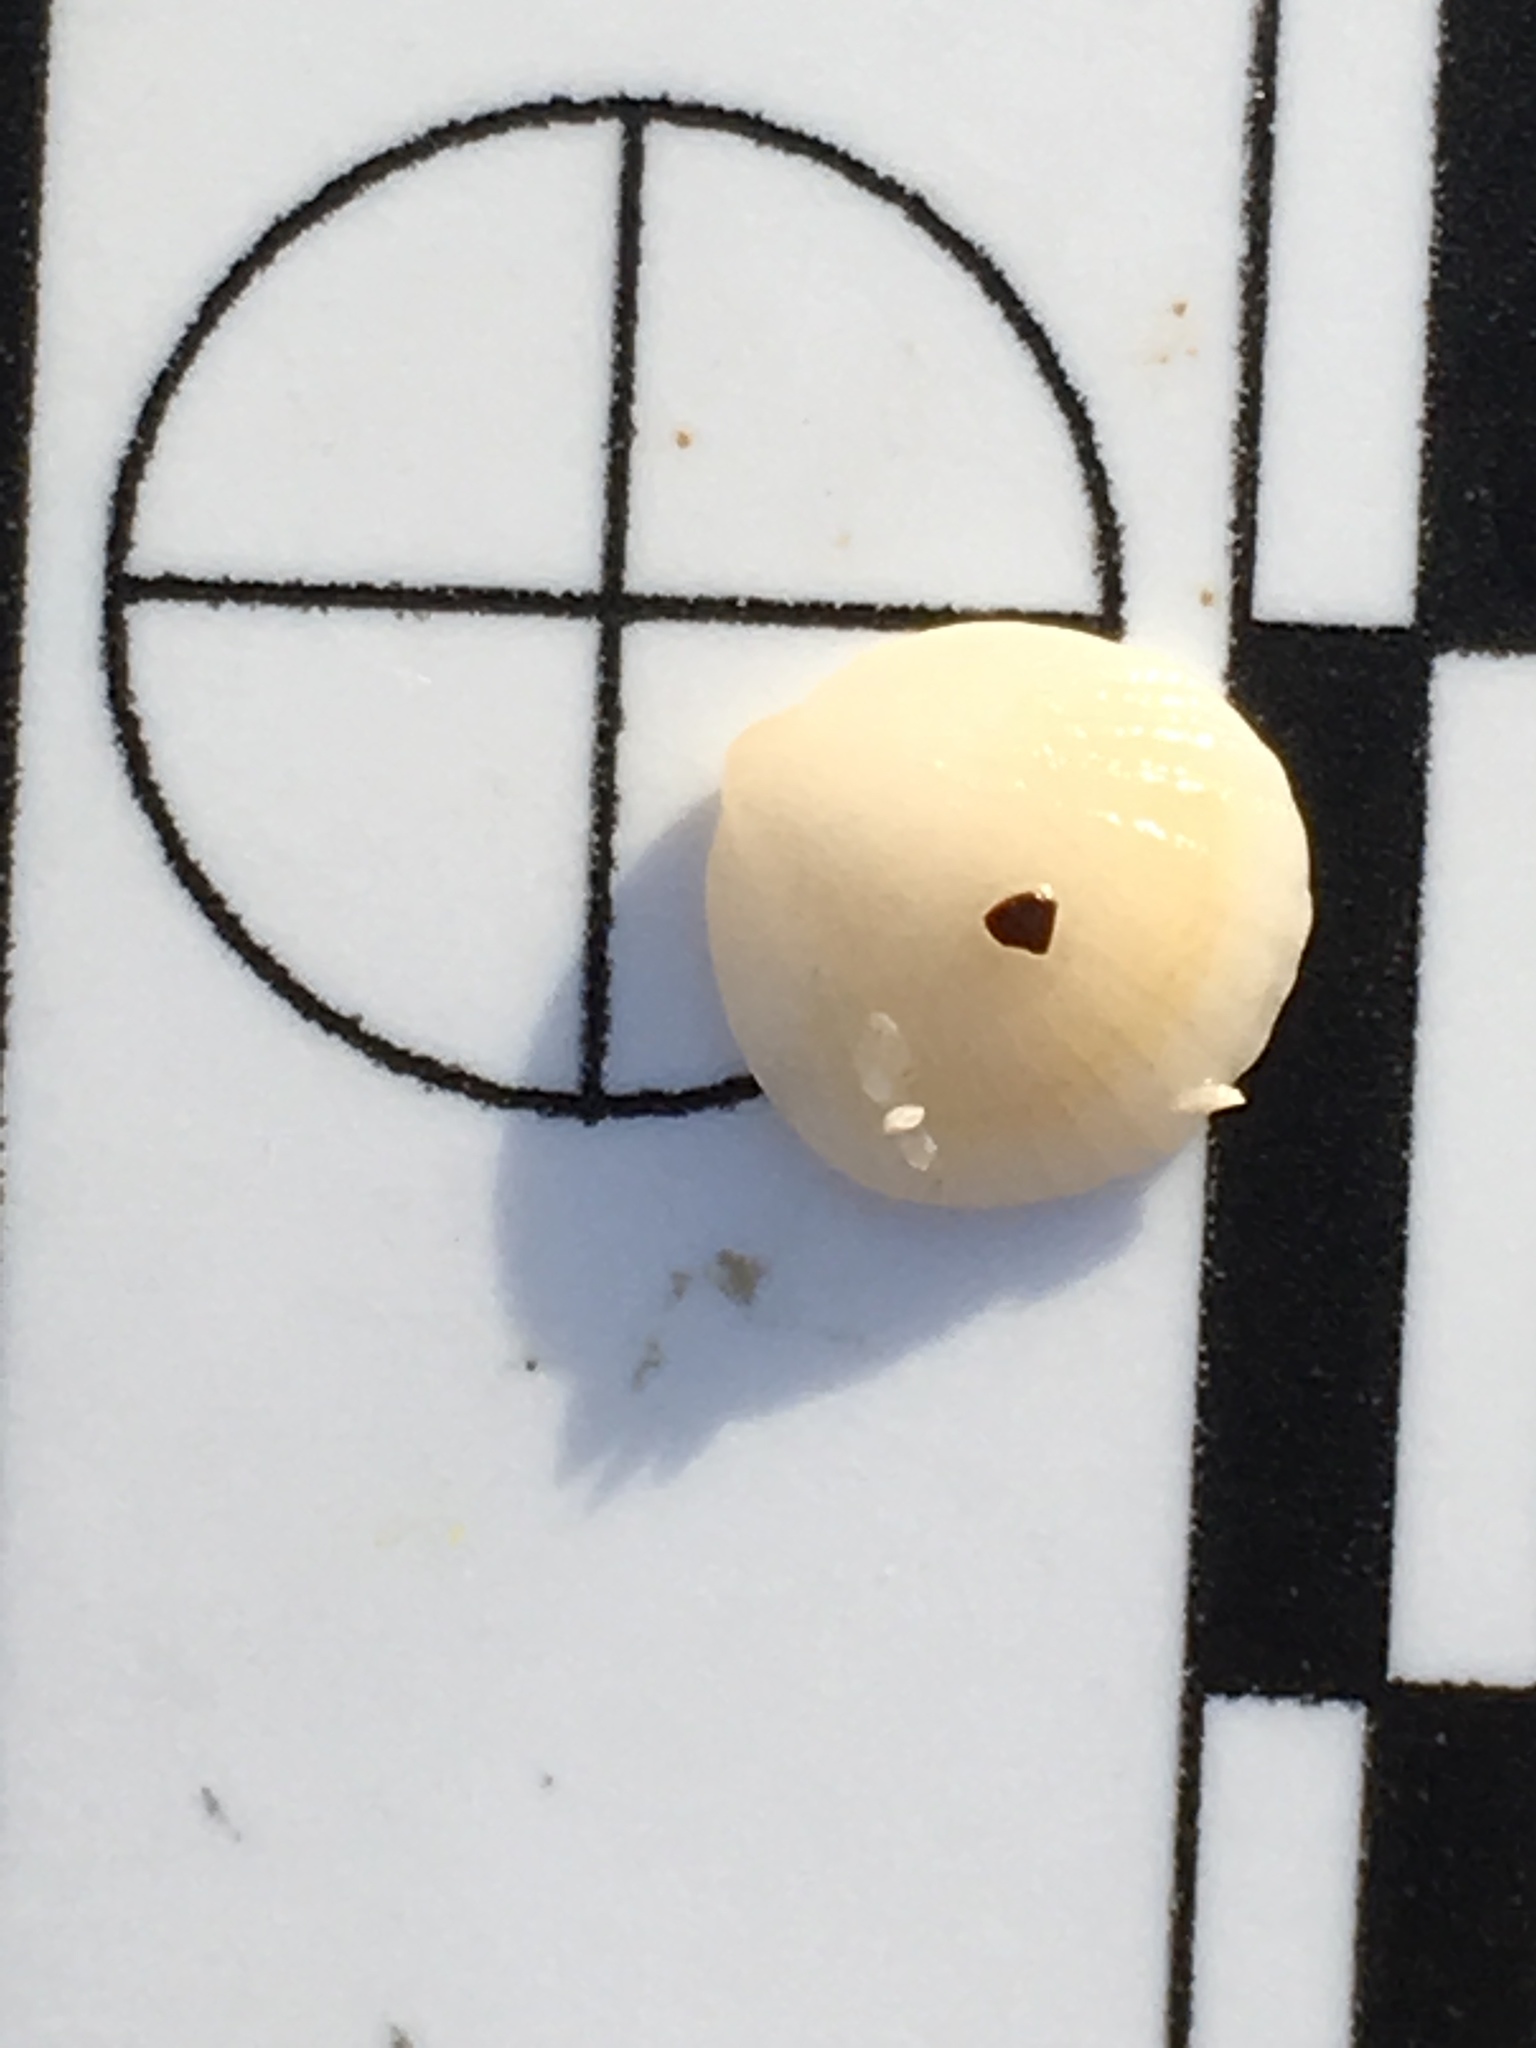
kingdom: Animalia
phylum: Mollusca
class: Bivalvia
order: Arcida
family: Glycymerididae
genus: Tucetona
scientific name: Tucetona pectinata
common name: Comb bittersweet
